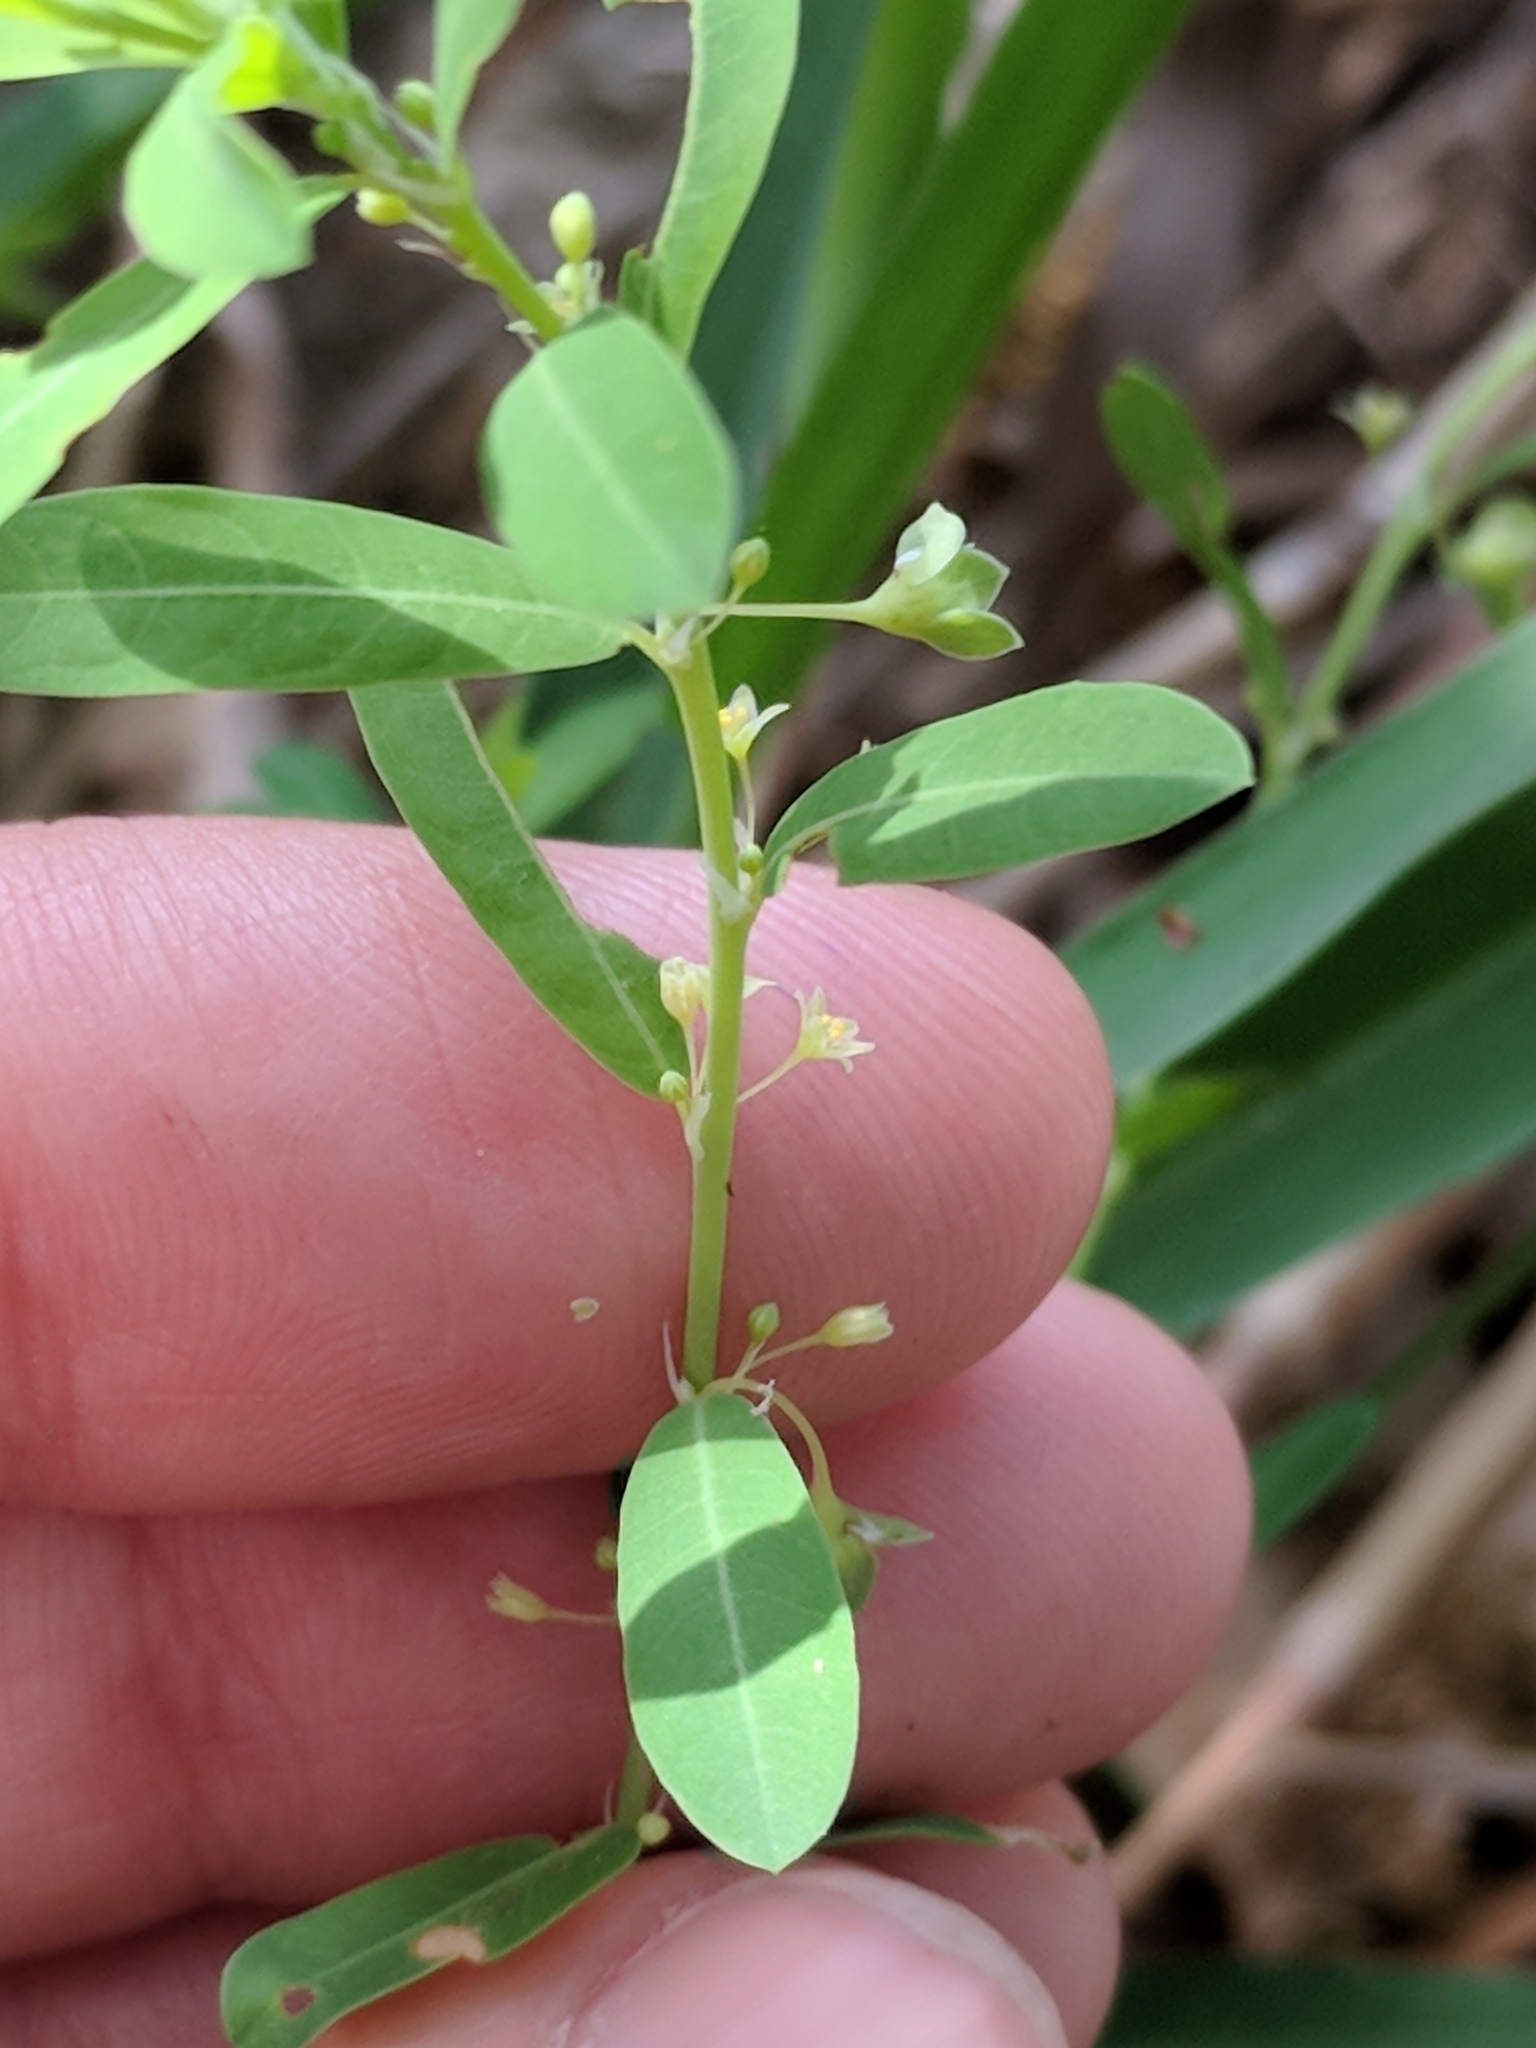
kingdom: Plantae
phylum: Tracheophyta
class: Magnoliopsida
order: Malpighiales
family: Phyllanthaceae
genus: Phyllanthus
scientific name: Phyllanthus polygonoides
